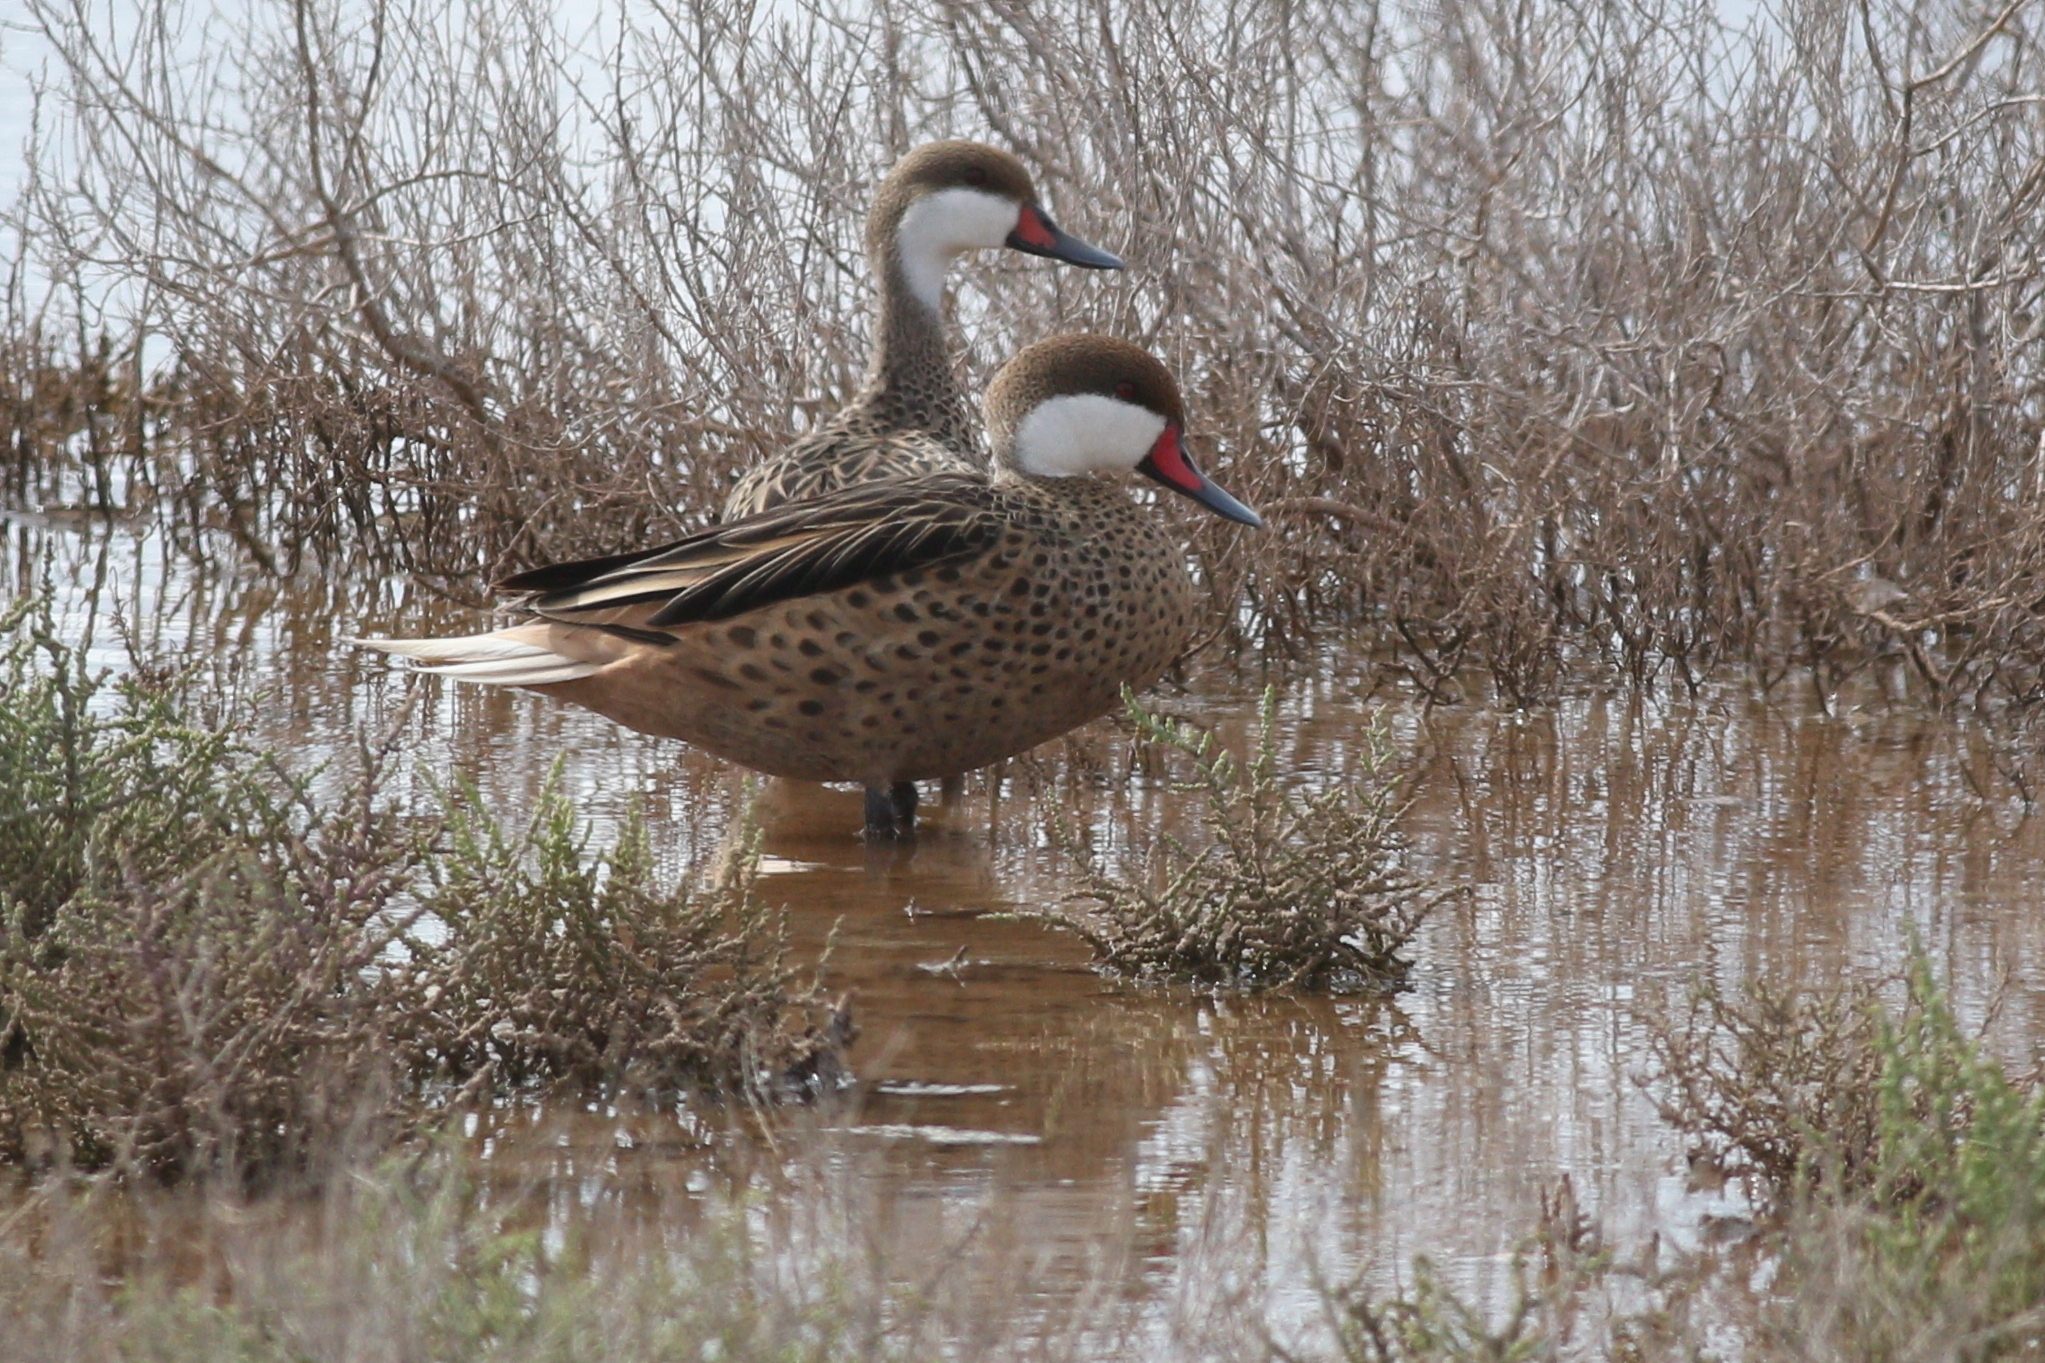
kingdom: Animalia
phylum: Chordata
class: Aves
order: Anseriformes
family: Anatidae
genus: Anas
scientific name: Anas bahamensis
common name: White-cheeked pintail
